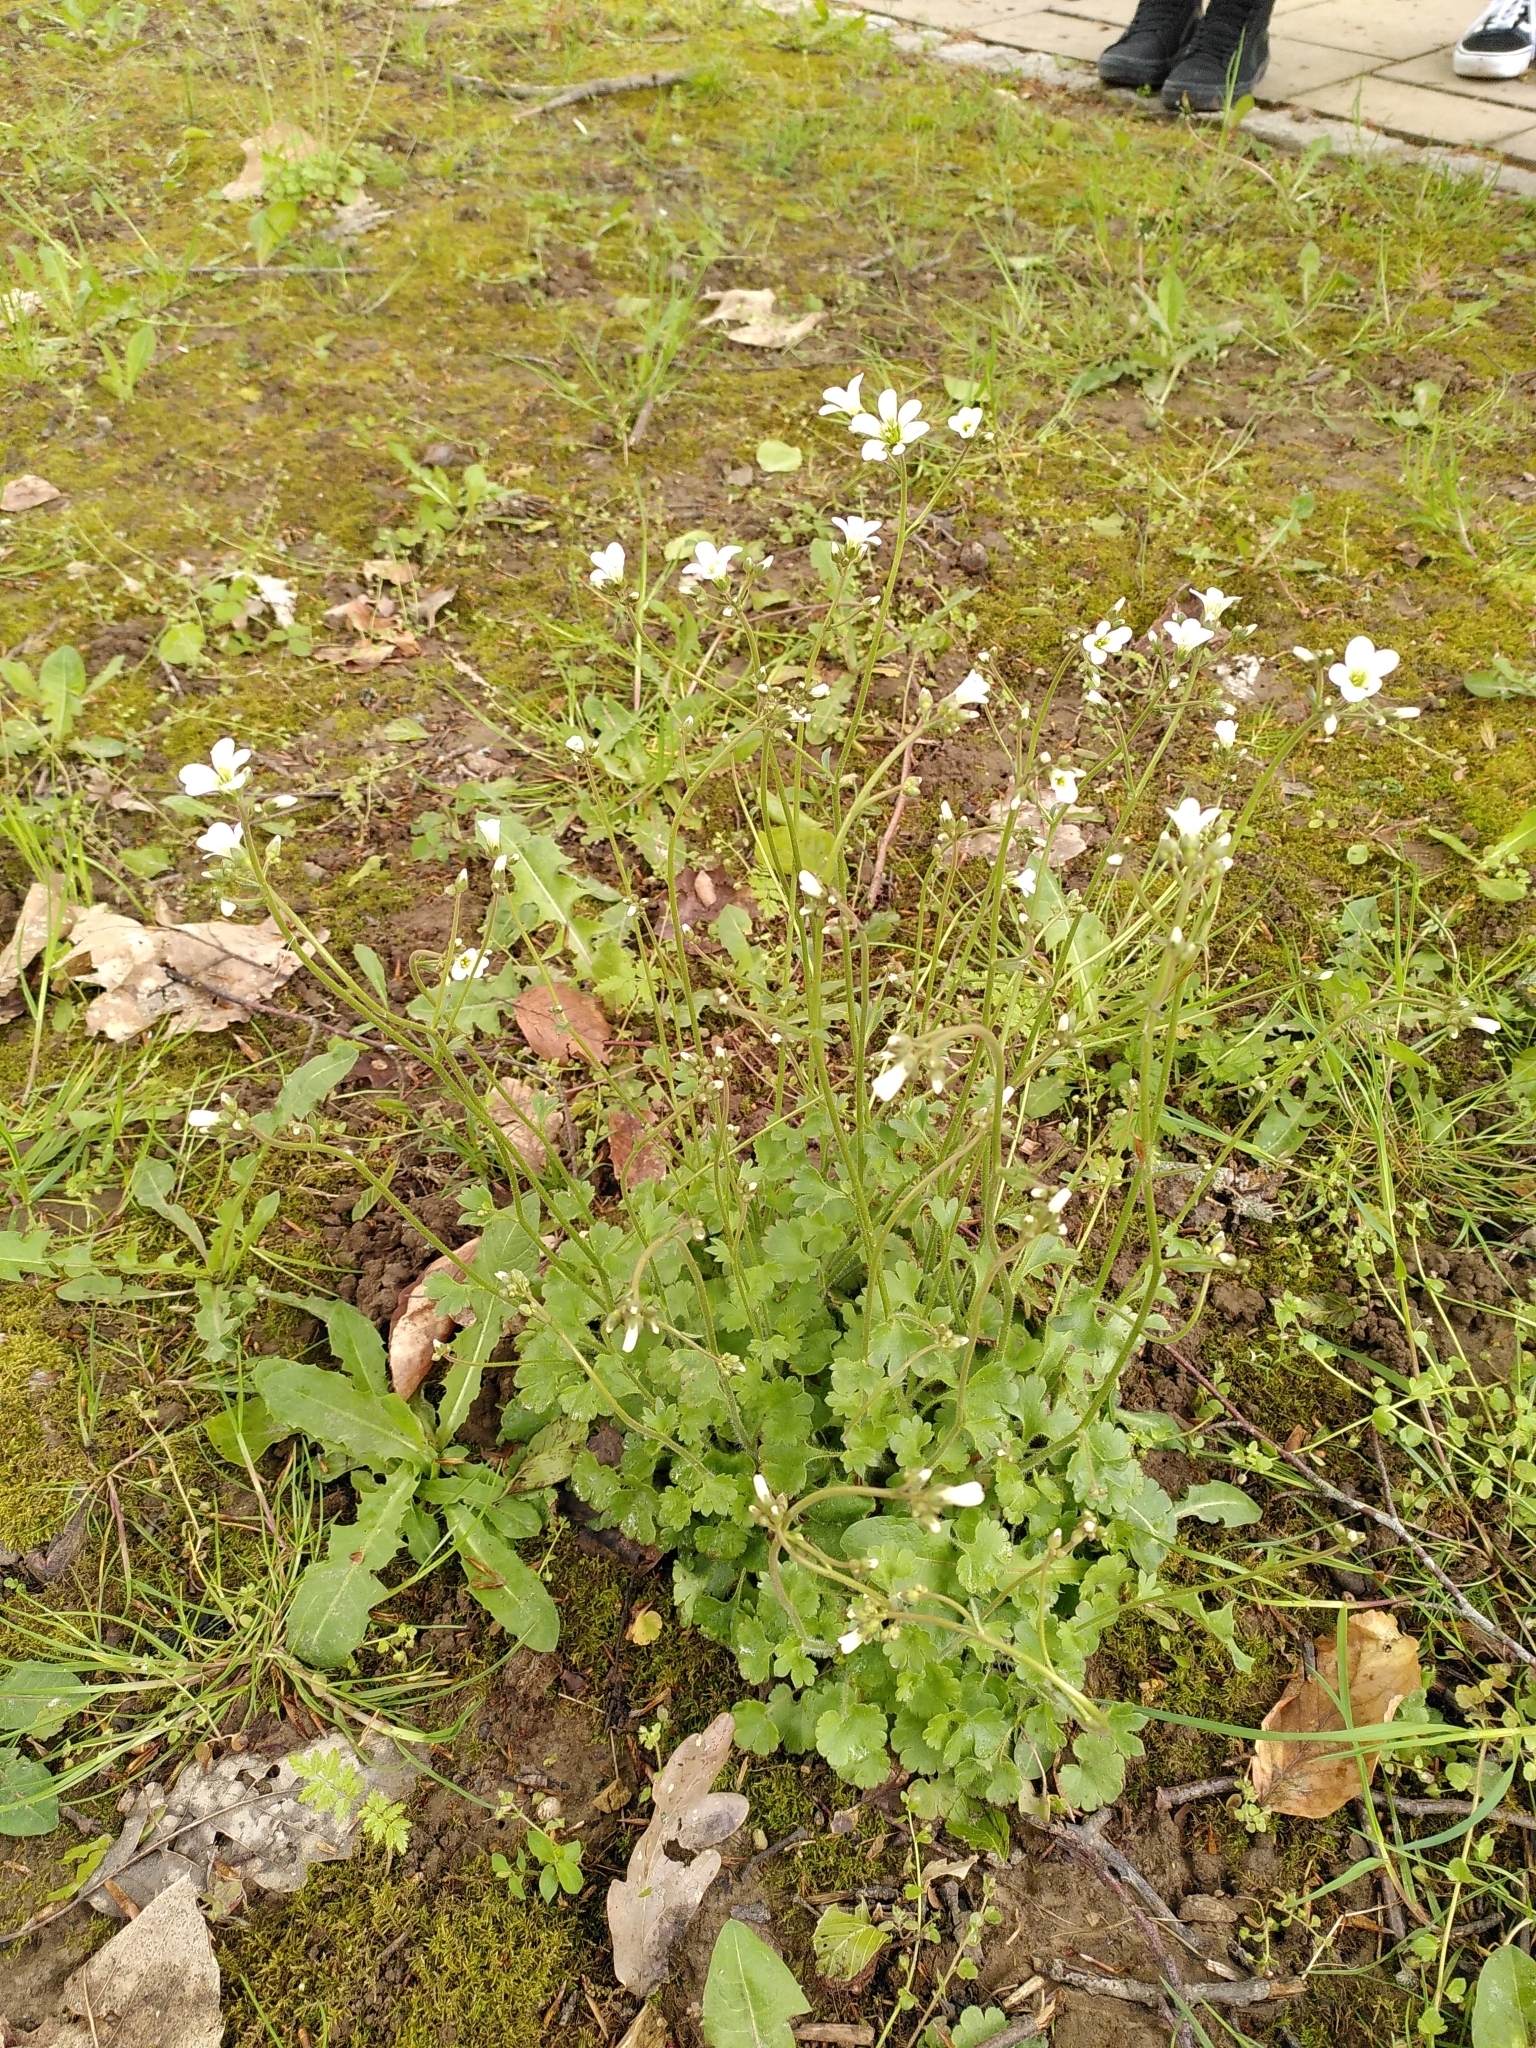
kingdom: Plantae
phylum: Tracheophyta
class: Magnoliopsida
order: Saxifragales
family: Saxifragaceae
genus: Saxifraga
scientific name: Saxifraga granulata
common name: Meadow saxifrage
